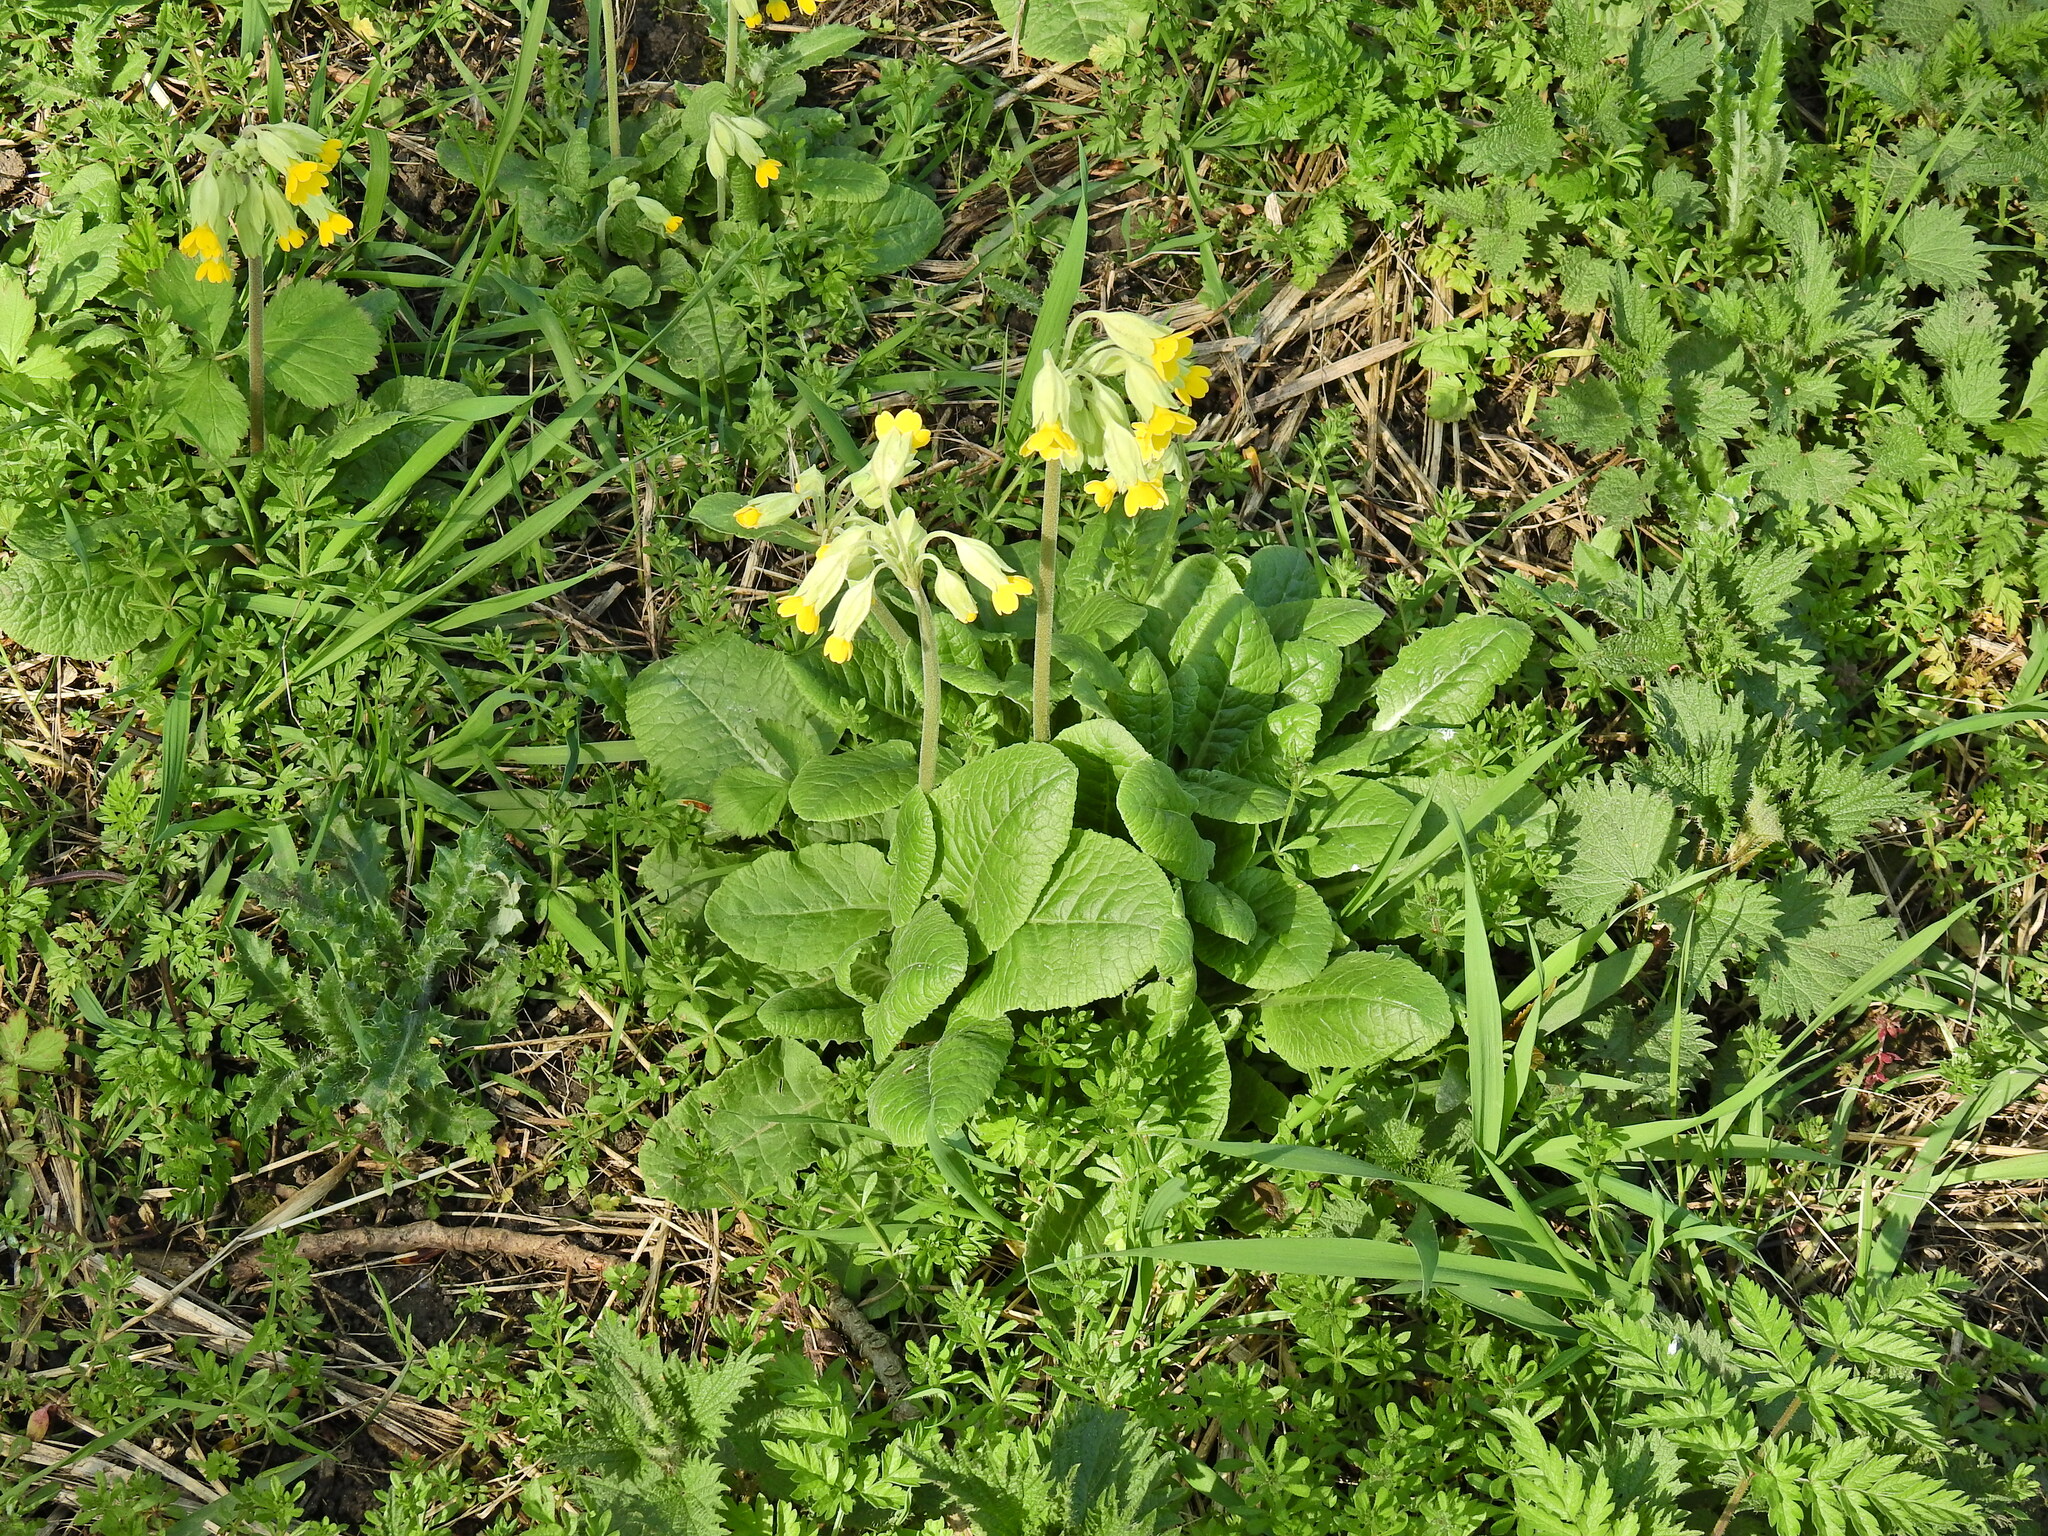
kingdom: Plantae
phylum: Tracheophyta
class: Magnoliopsida
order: Ericales
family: Primulaceae
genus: Primula
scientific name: Primula veris
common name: Cowslip
